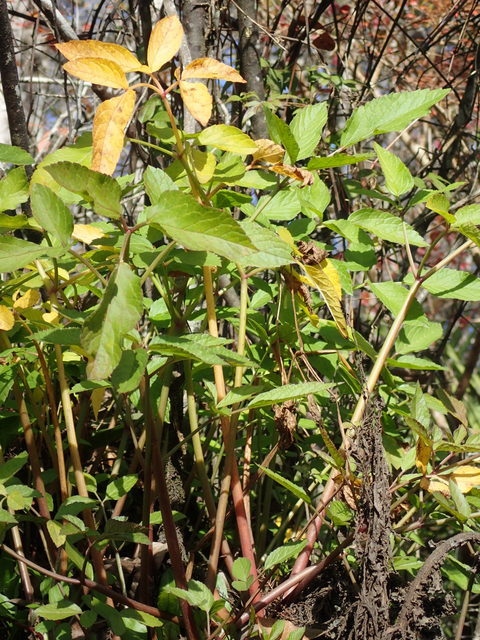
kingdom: Plantae
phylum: Tracheophyta
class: Magnoliopsida
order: Apiales
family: Apiaceae
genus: Cicuta
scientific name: Cicuta maculata
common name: Spotted cowbane
